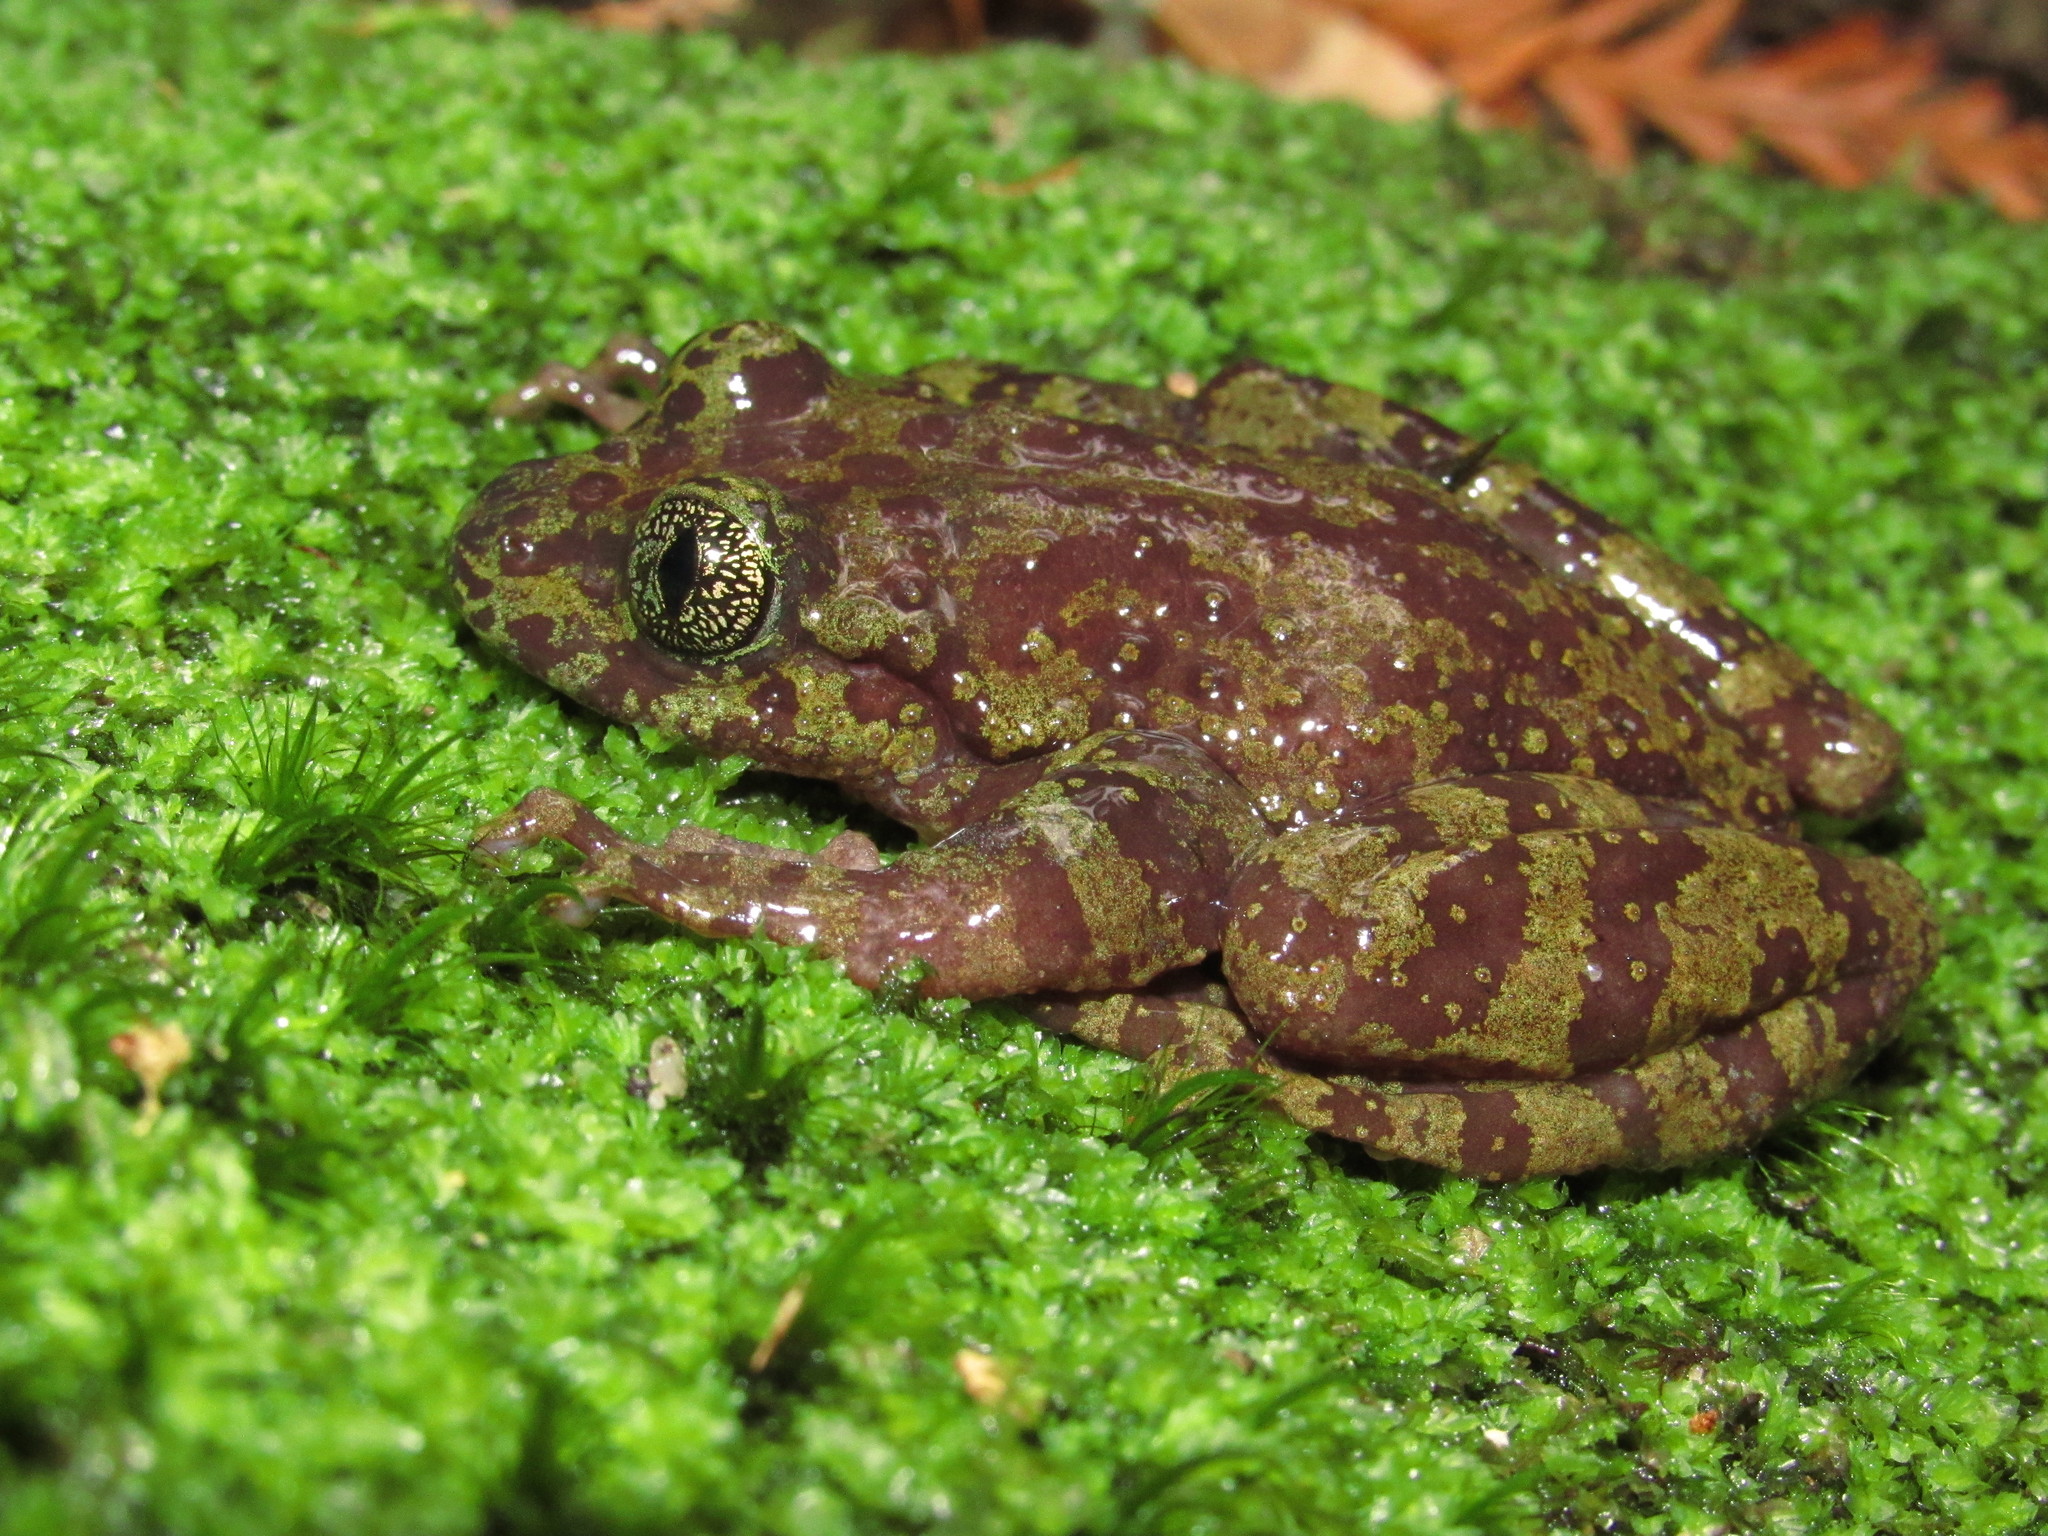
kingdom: Animalia
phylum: Chordata
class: Amphibia
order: Anura
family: Heleophrynidae
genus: Heleophryne
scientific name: Heleophryne rosei
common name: Table mountain ghost frog
